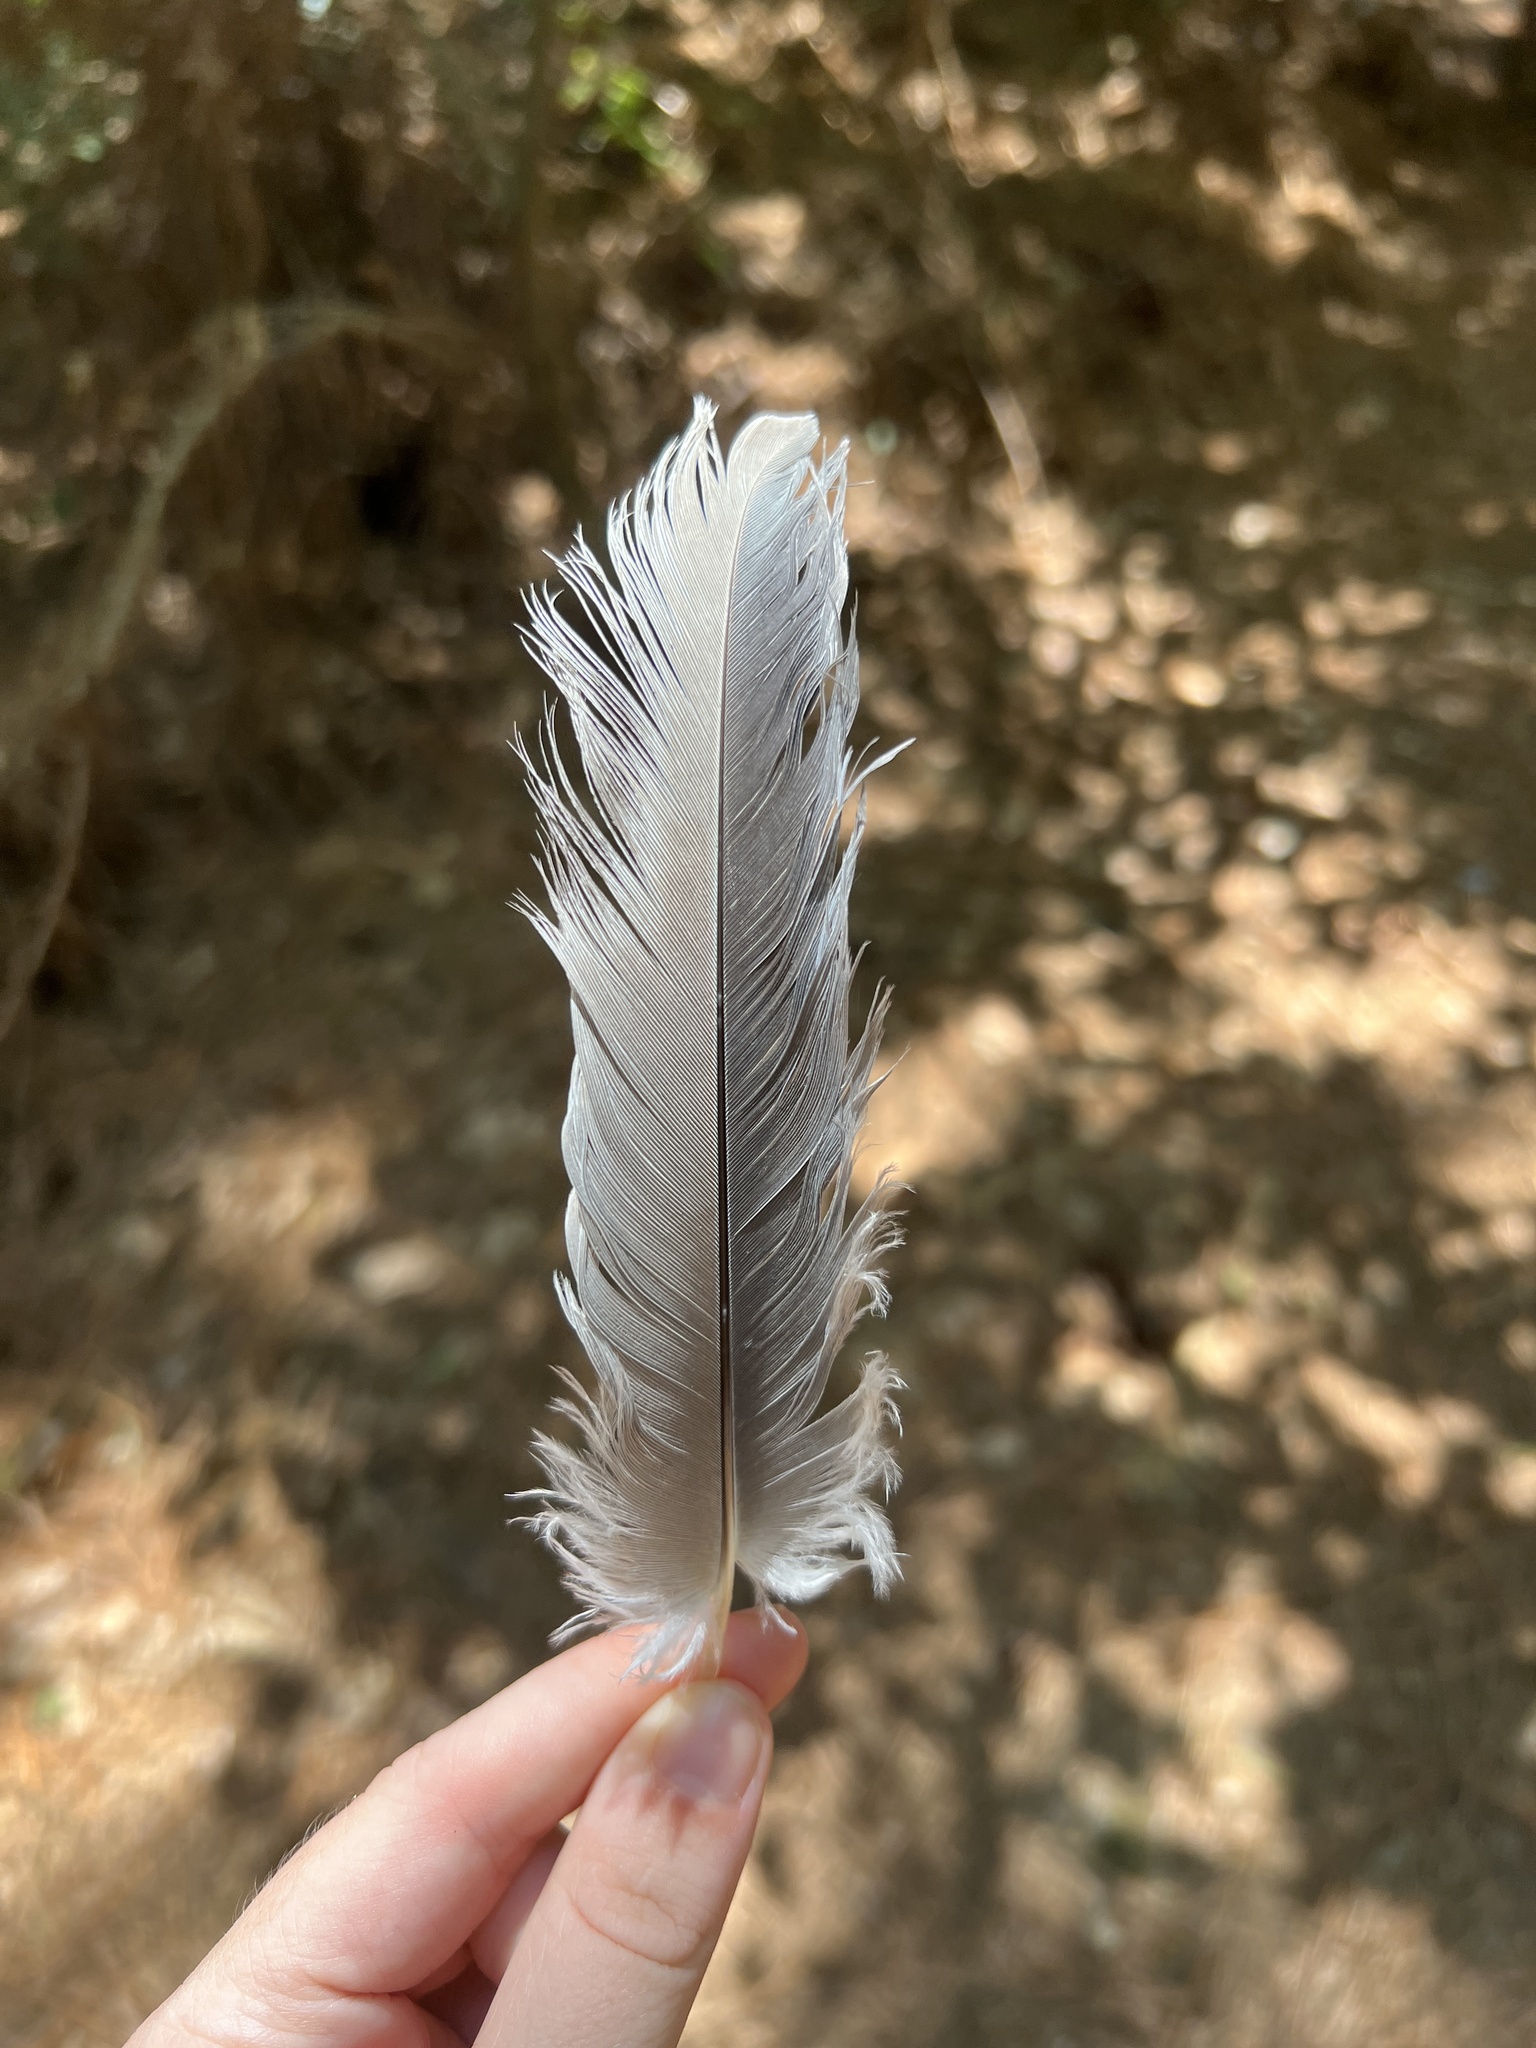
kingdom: Animalia
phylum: Chordata
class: Aves
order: Pelecaniformes
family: Ardeidae
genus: Ardea
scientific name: Ardea herodias
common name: Great blue heron
